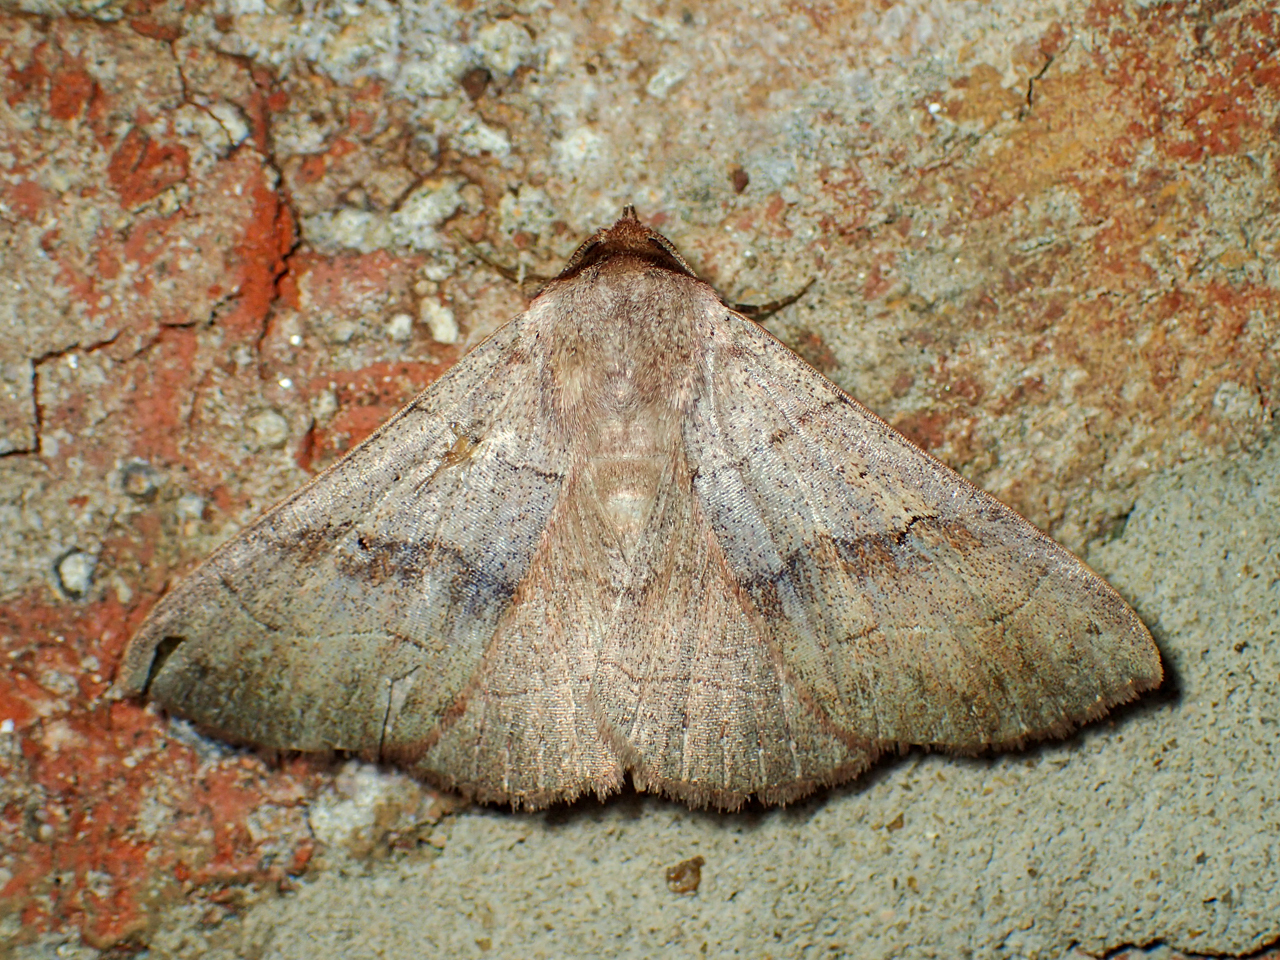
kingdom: Animalia
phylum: Arthropoda
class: Insecta
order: Lepidoptera
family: Erebidae
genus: Panopoda
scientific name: Panopoda carneicosta
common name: Brown panopoda moth
